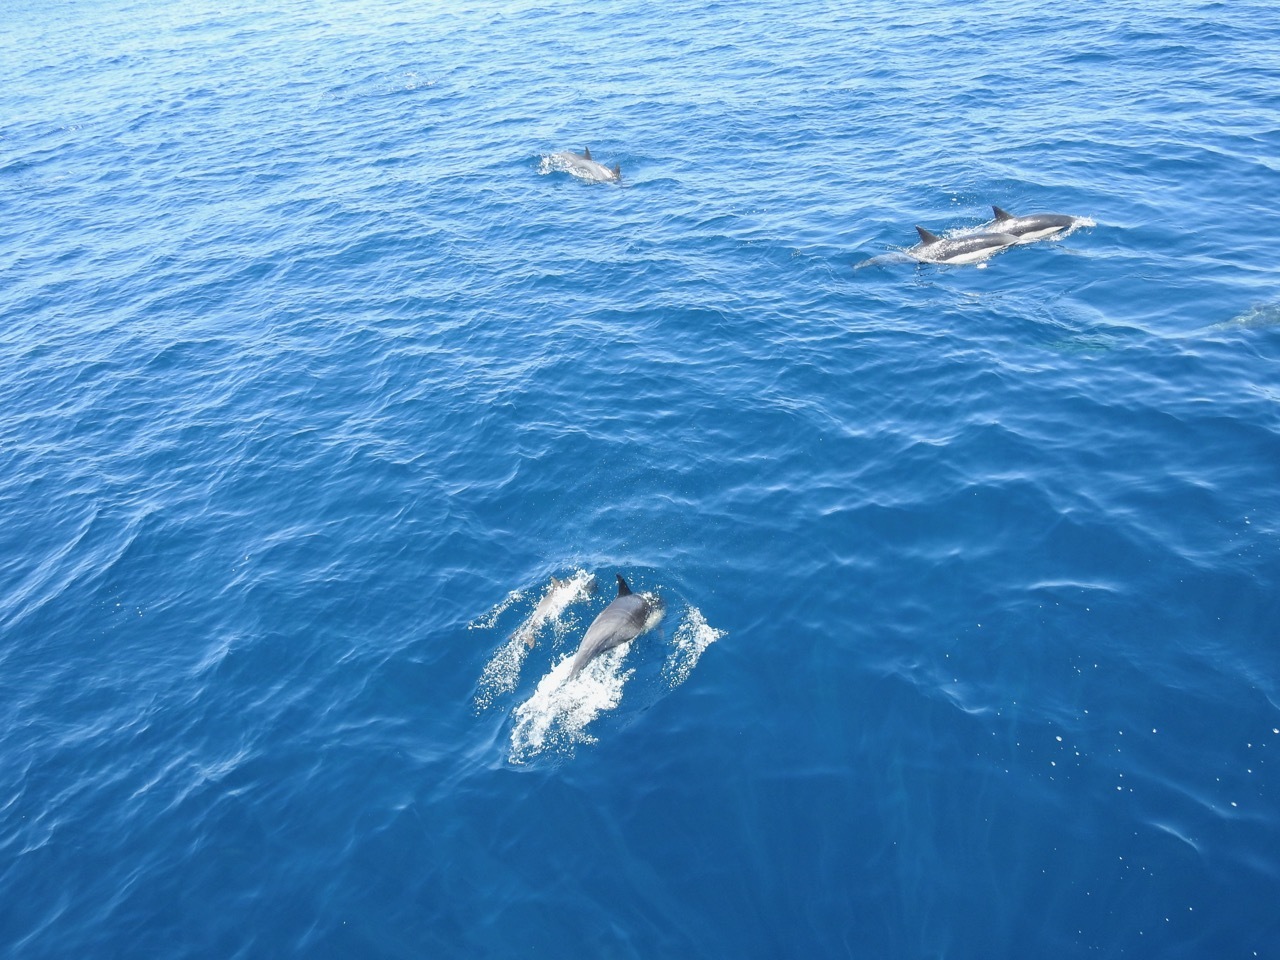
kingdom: Animalia
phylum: Chordata
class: Mammalia
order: Cetacea
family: Delphinidae
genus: Delphinus
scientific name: Delphinus delphis
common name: Common dolphin
